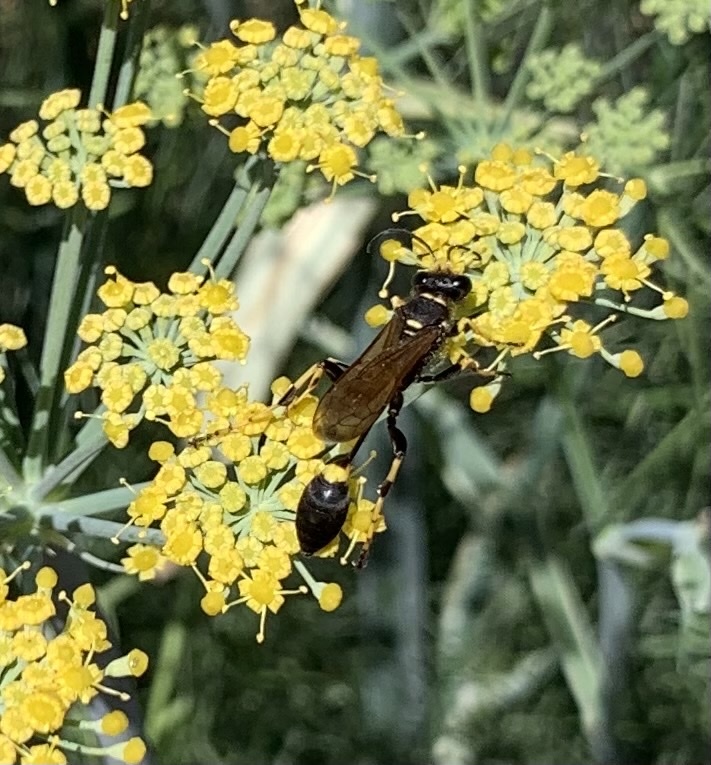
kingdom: Animalia
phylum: Arthropoda
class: Insecta
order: Hymenoptera
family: Sphecidae
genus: Sceliphron
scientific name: Sceliphron caementarium
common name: Mud dauber
